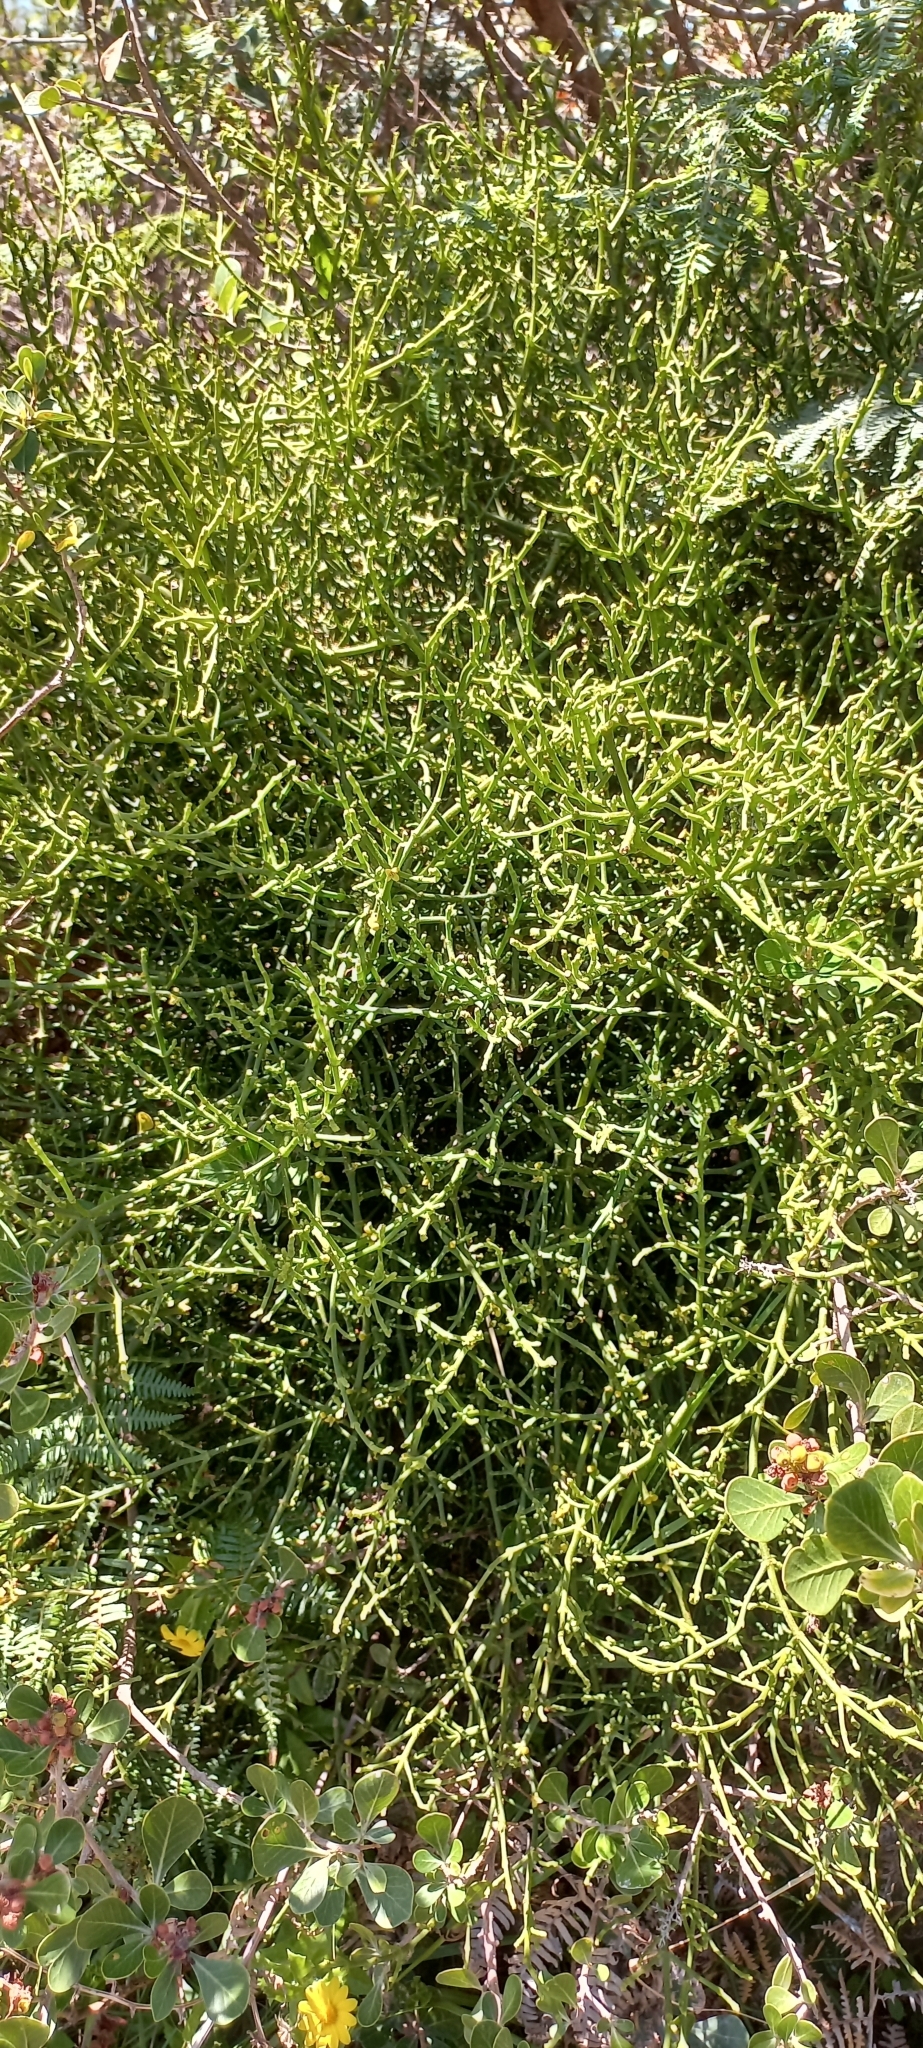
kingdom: Plantae
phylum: Tracheophyta
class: Magnoliopsida
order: Santalales
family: Viscaceae
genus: Viscum
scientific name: Viscum capense
